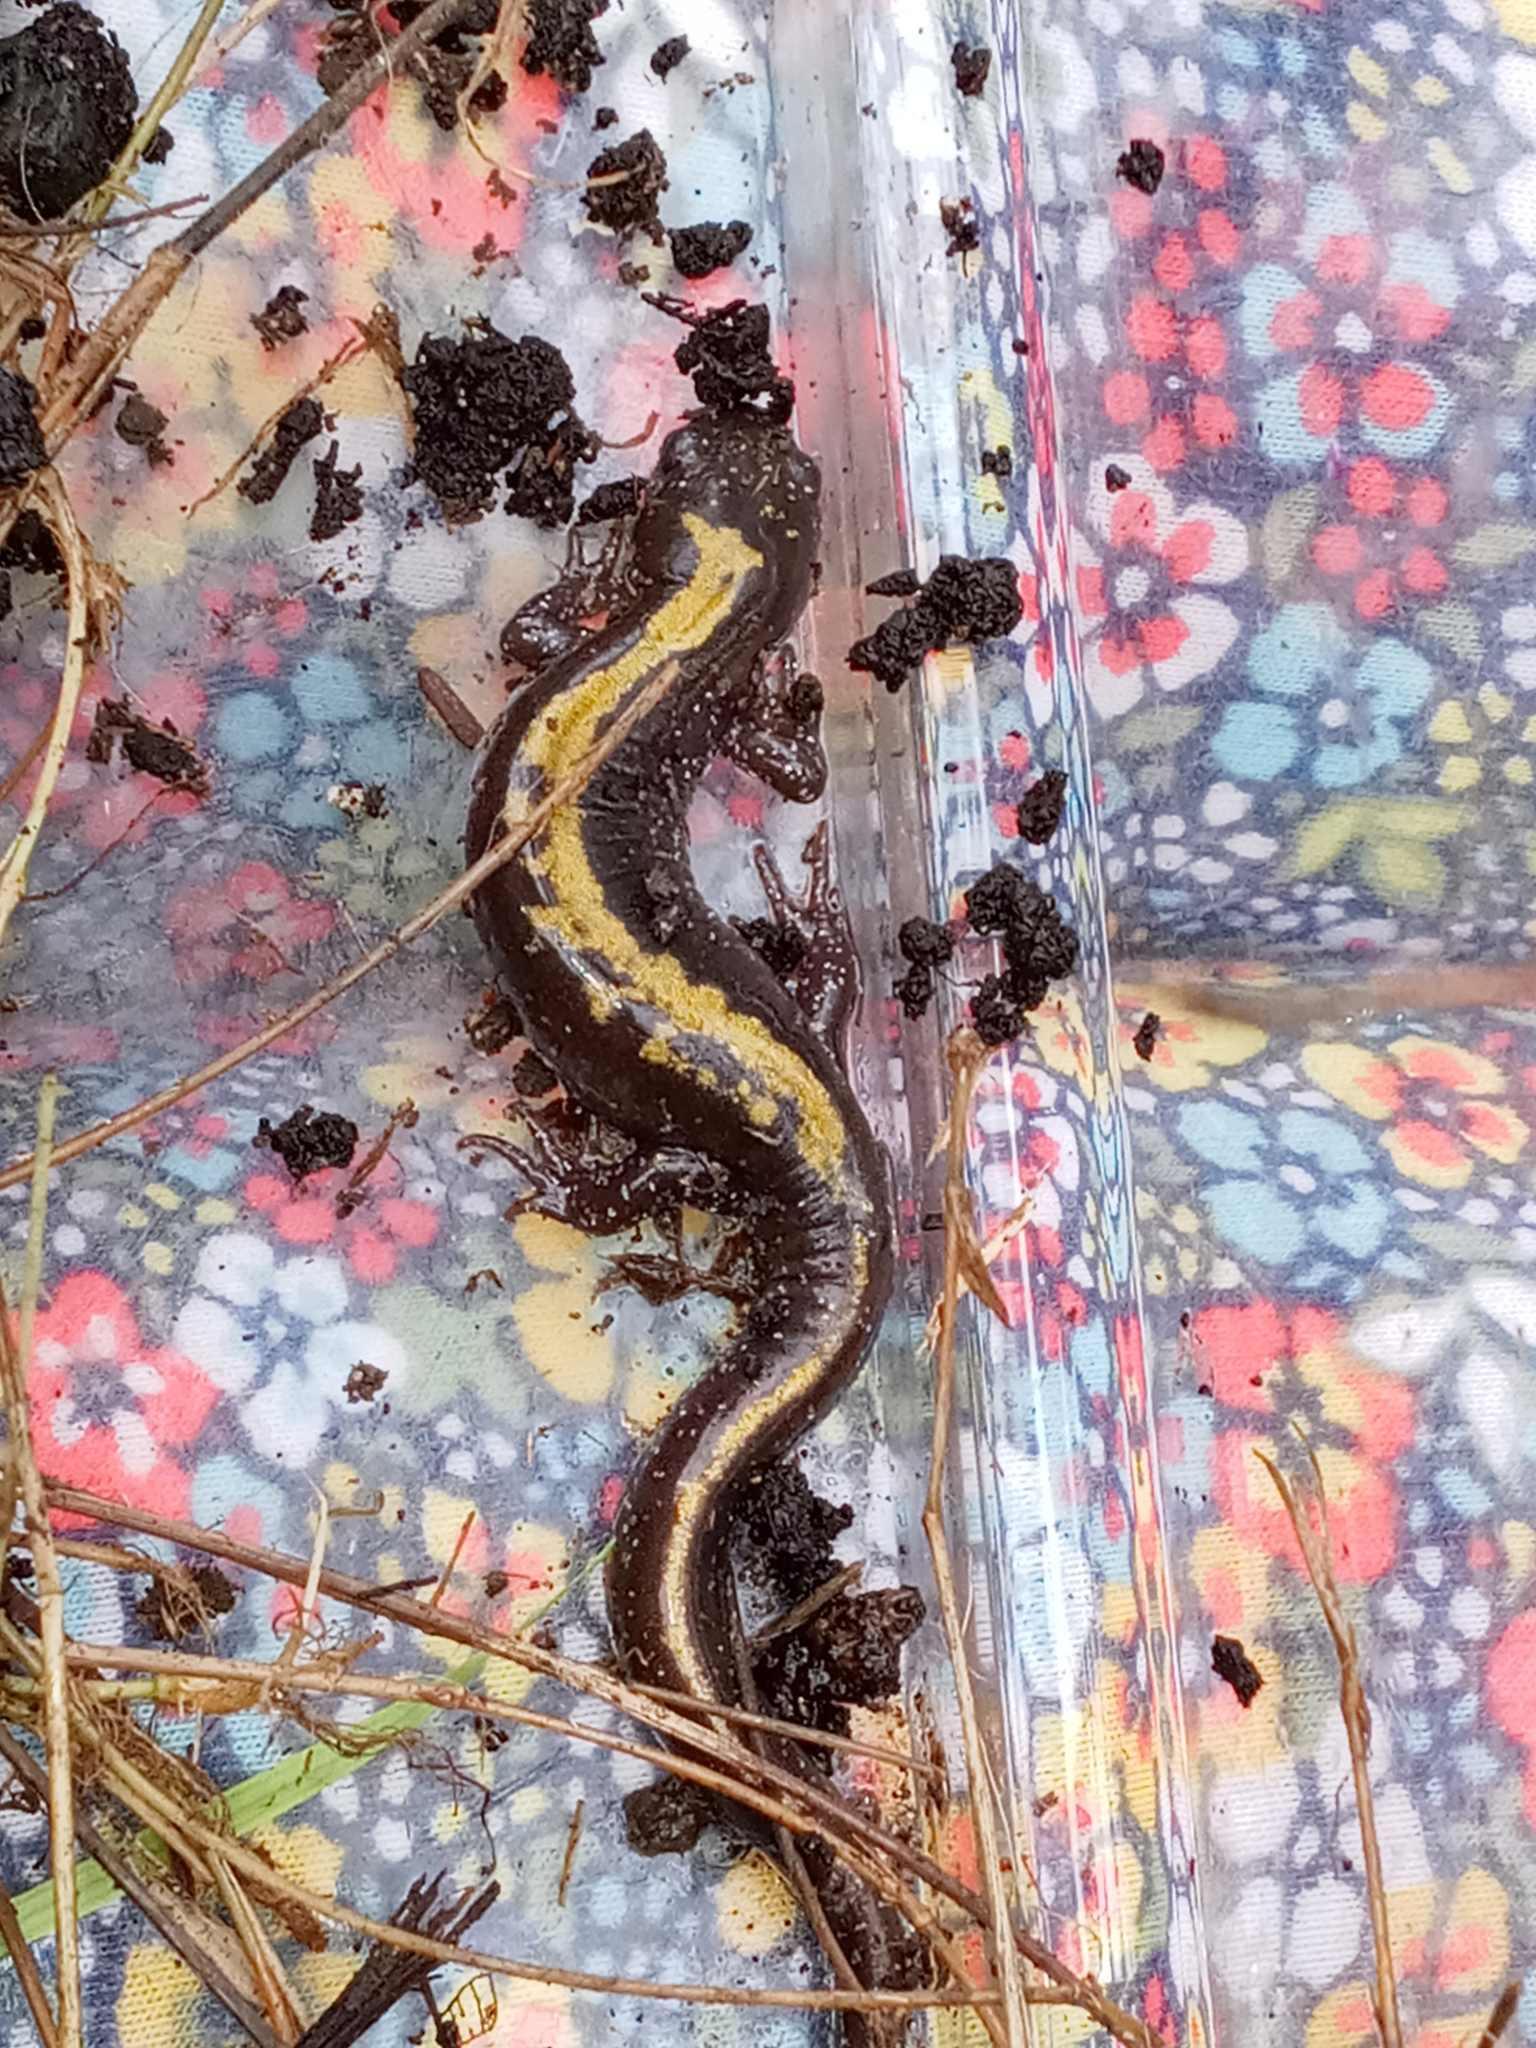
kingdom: Animalia
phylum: Chordata
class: Amphibia
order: Caudata
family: Ambystomatidae
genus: Ambystoma
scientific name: Ambystoma macrodactylum
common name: Long-toed salamander
